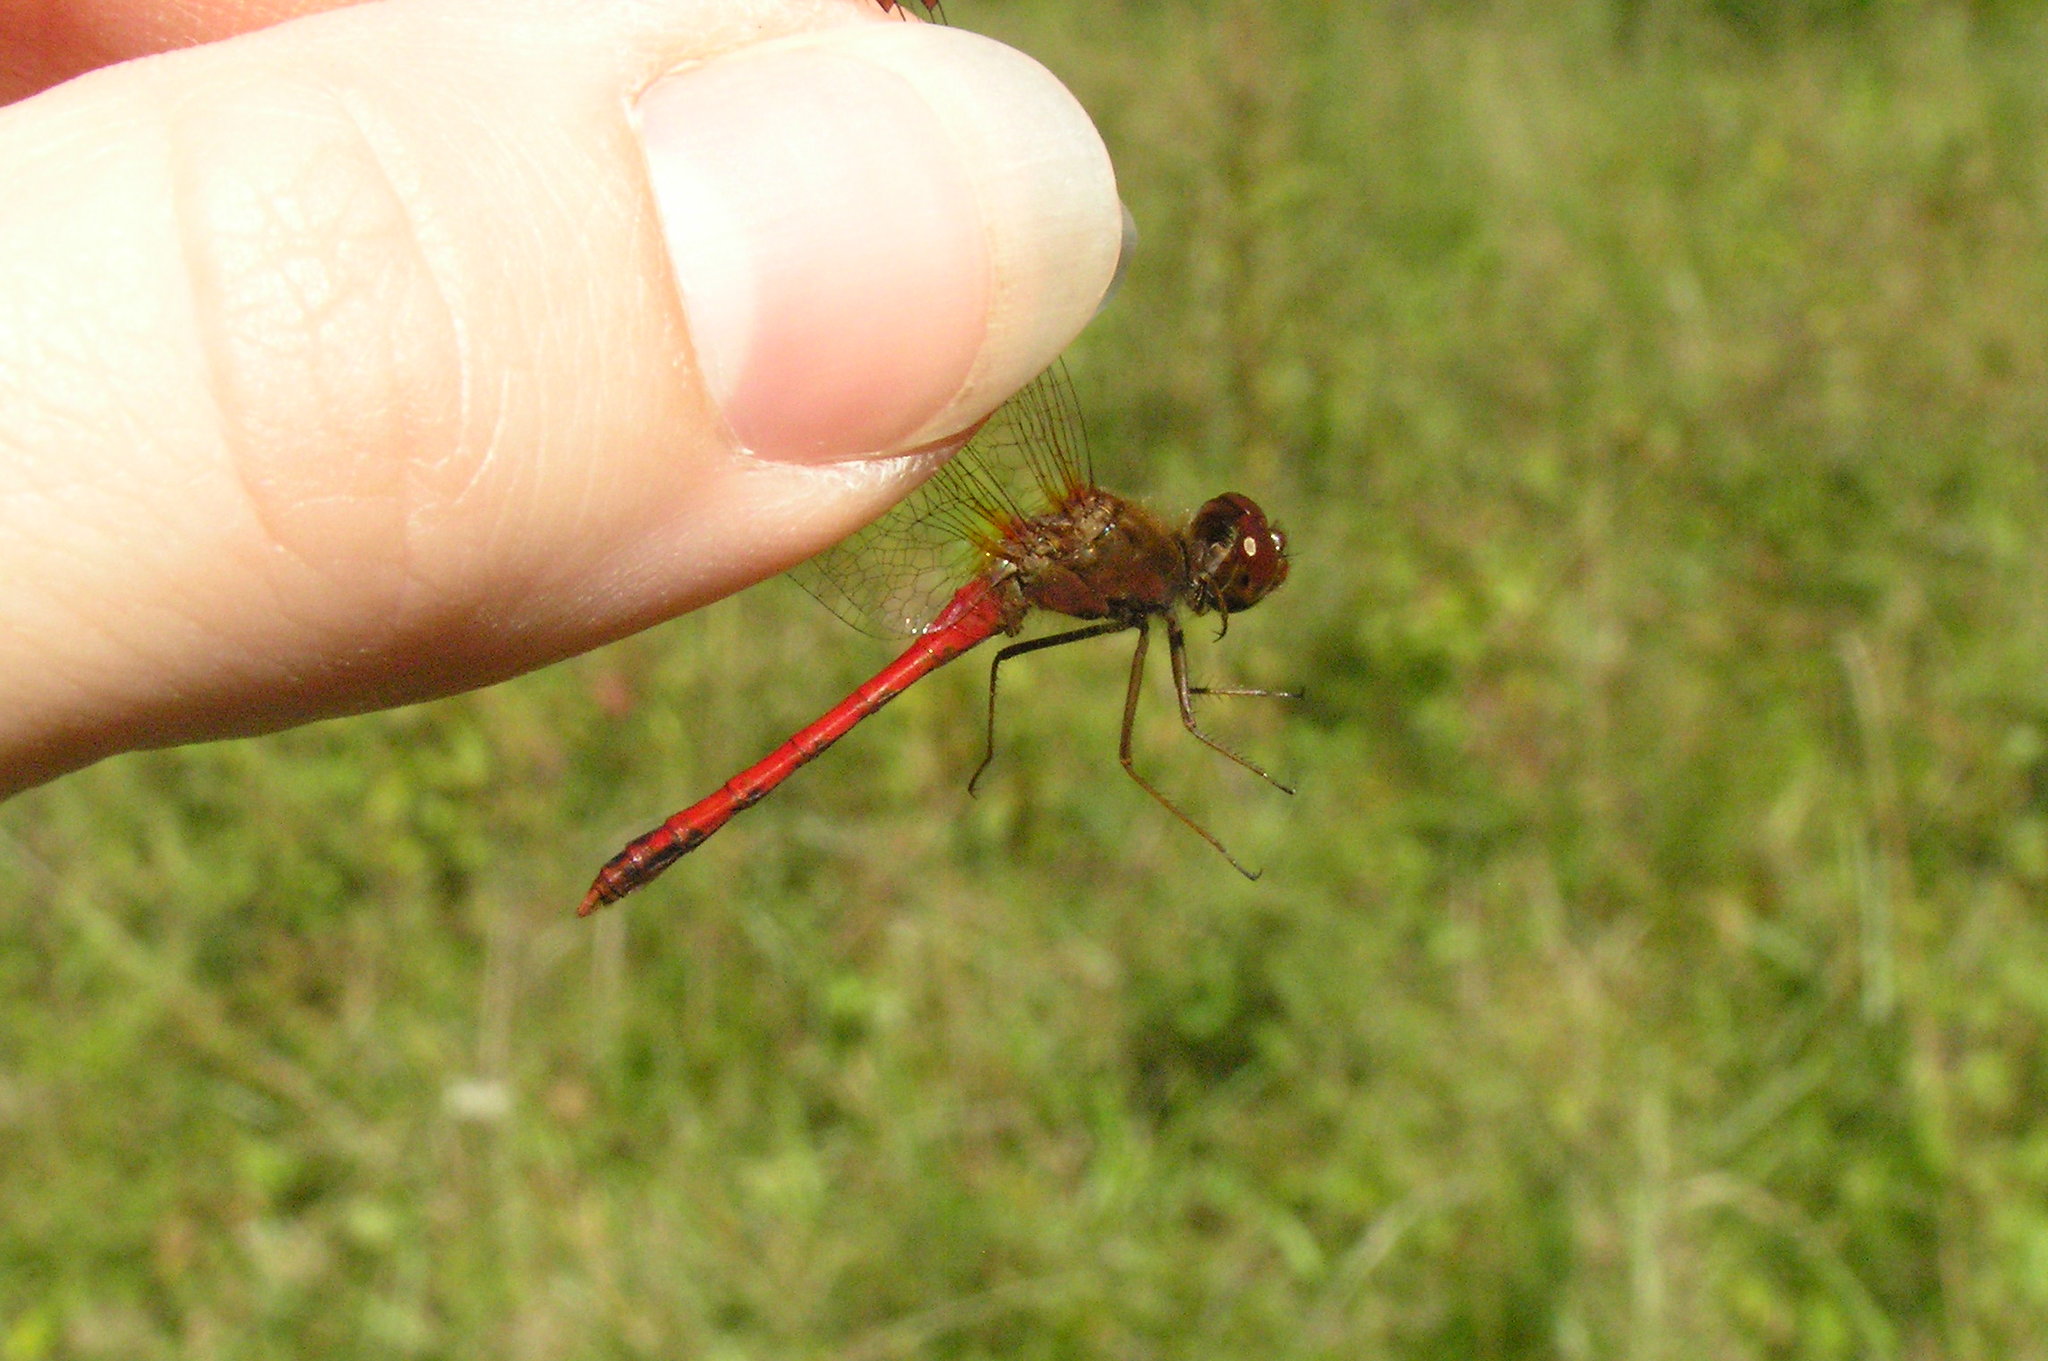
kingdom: Animalia
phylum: Arthropoda
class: Insecta
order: Odonata
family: Libellulidae
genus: Sympetrum
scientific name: Sympetrum vicinum
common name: Autumn meadowhawk
